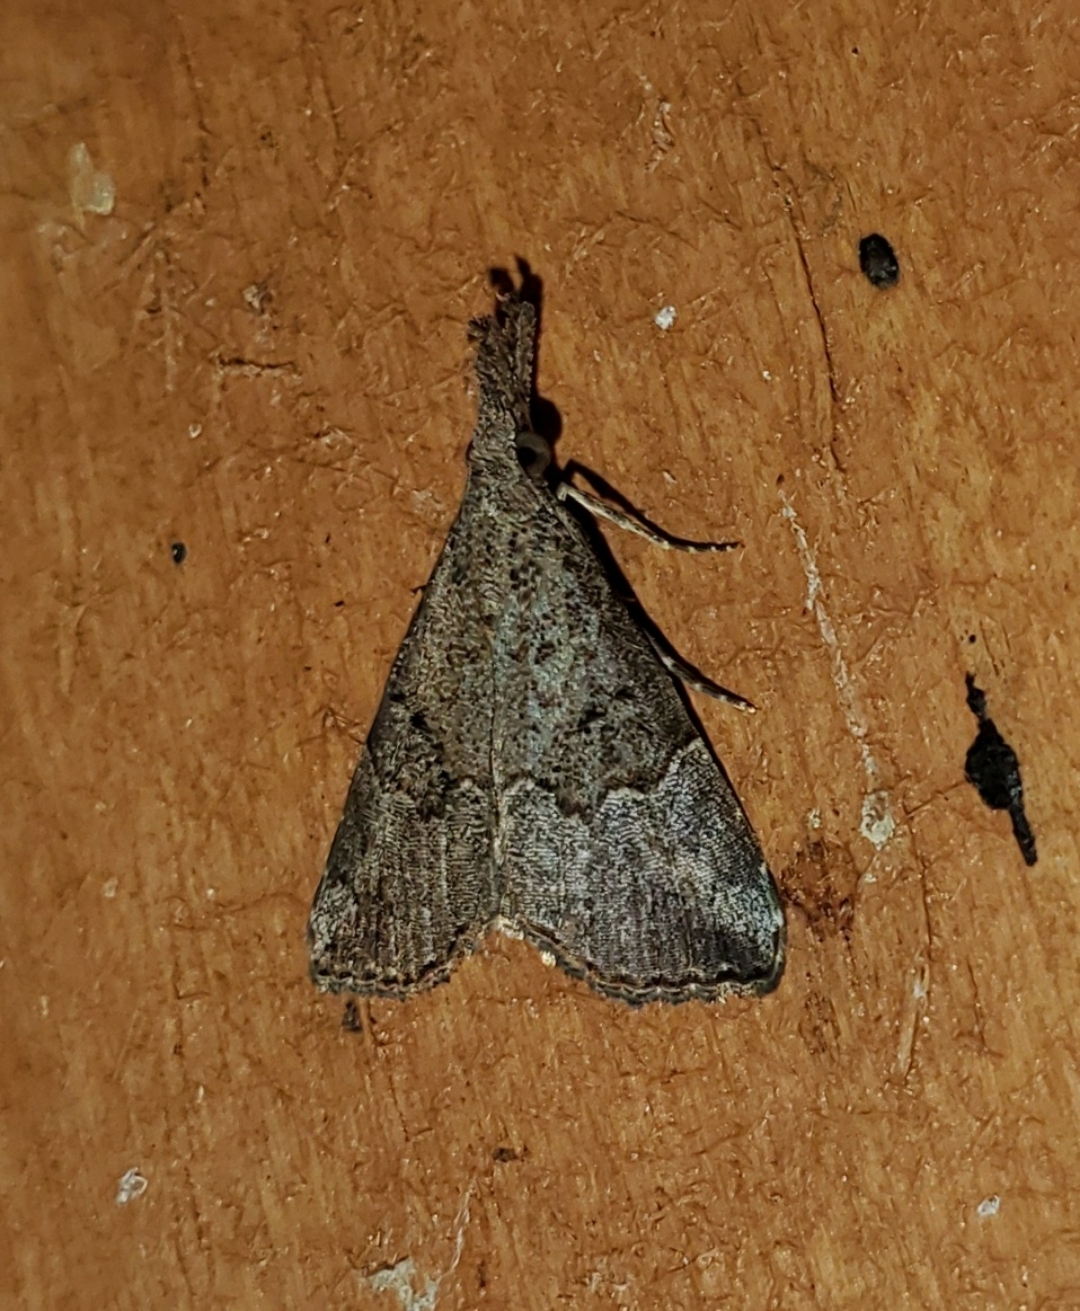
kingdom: Animalia
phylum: Arthropoda
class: Insecta
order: Lepidoptera
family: Erebidae
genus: Hypena
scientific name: Hypena minualis
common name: Sooty snout
